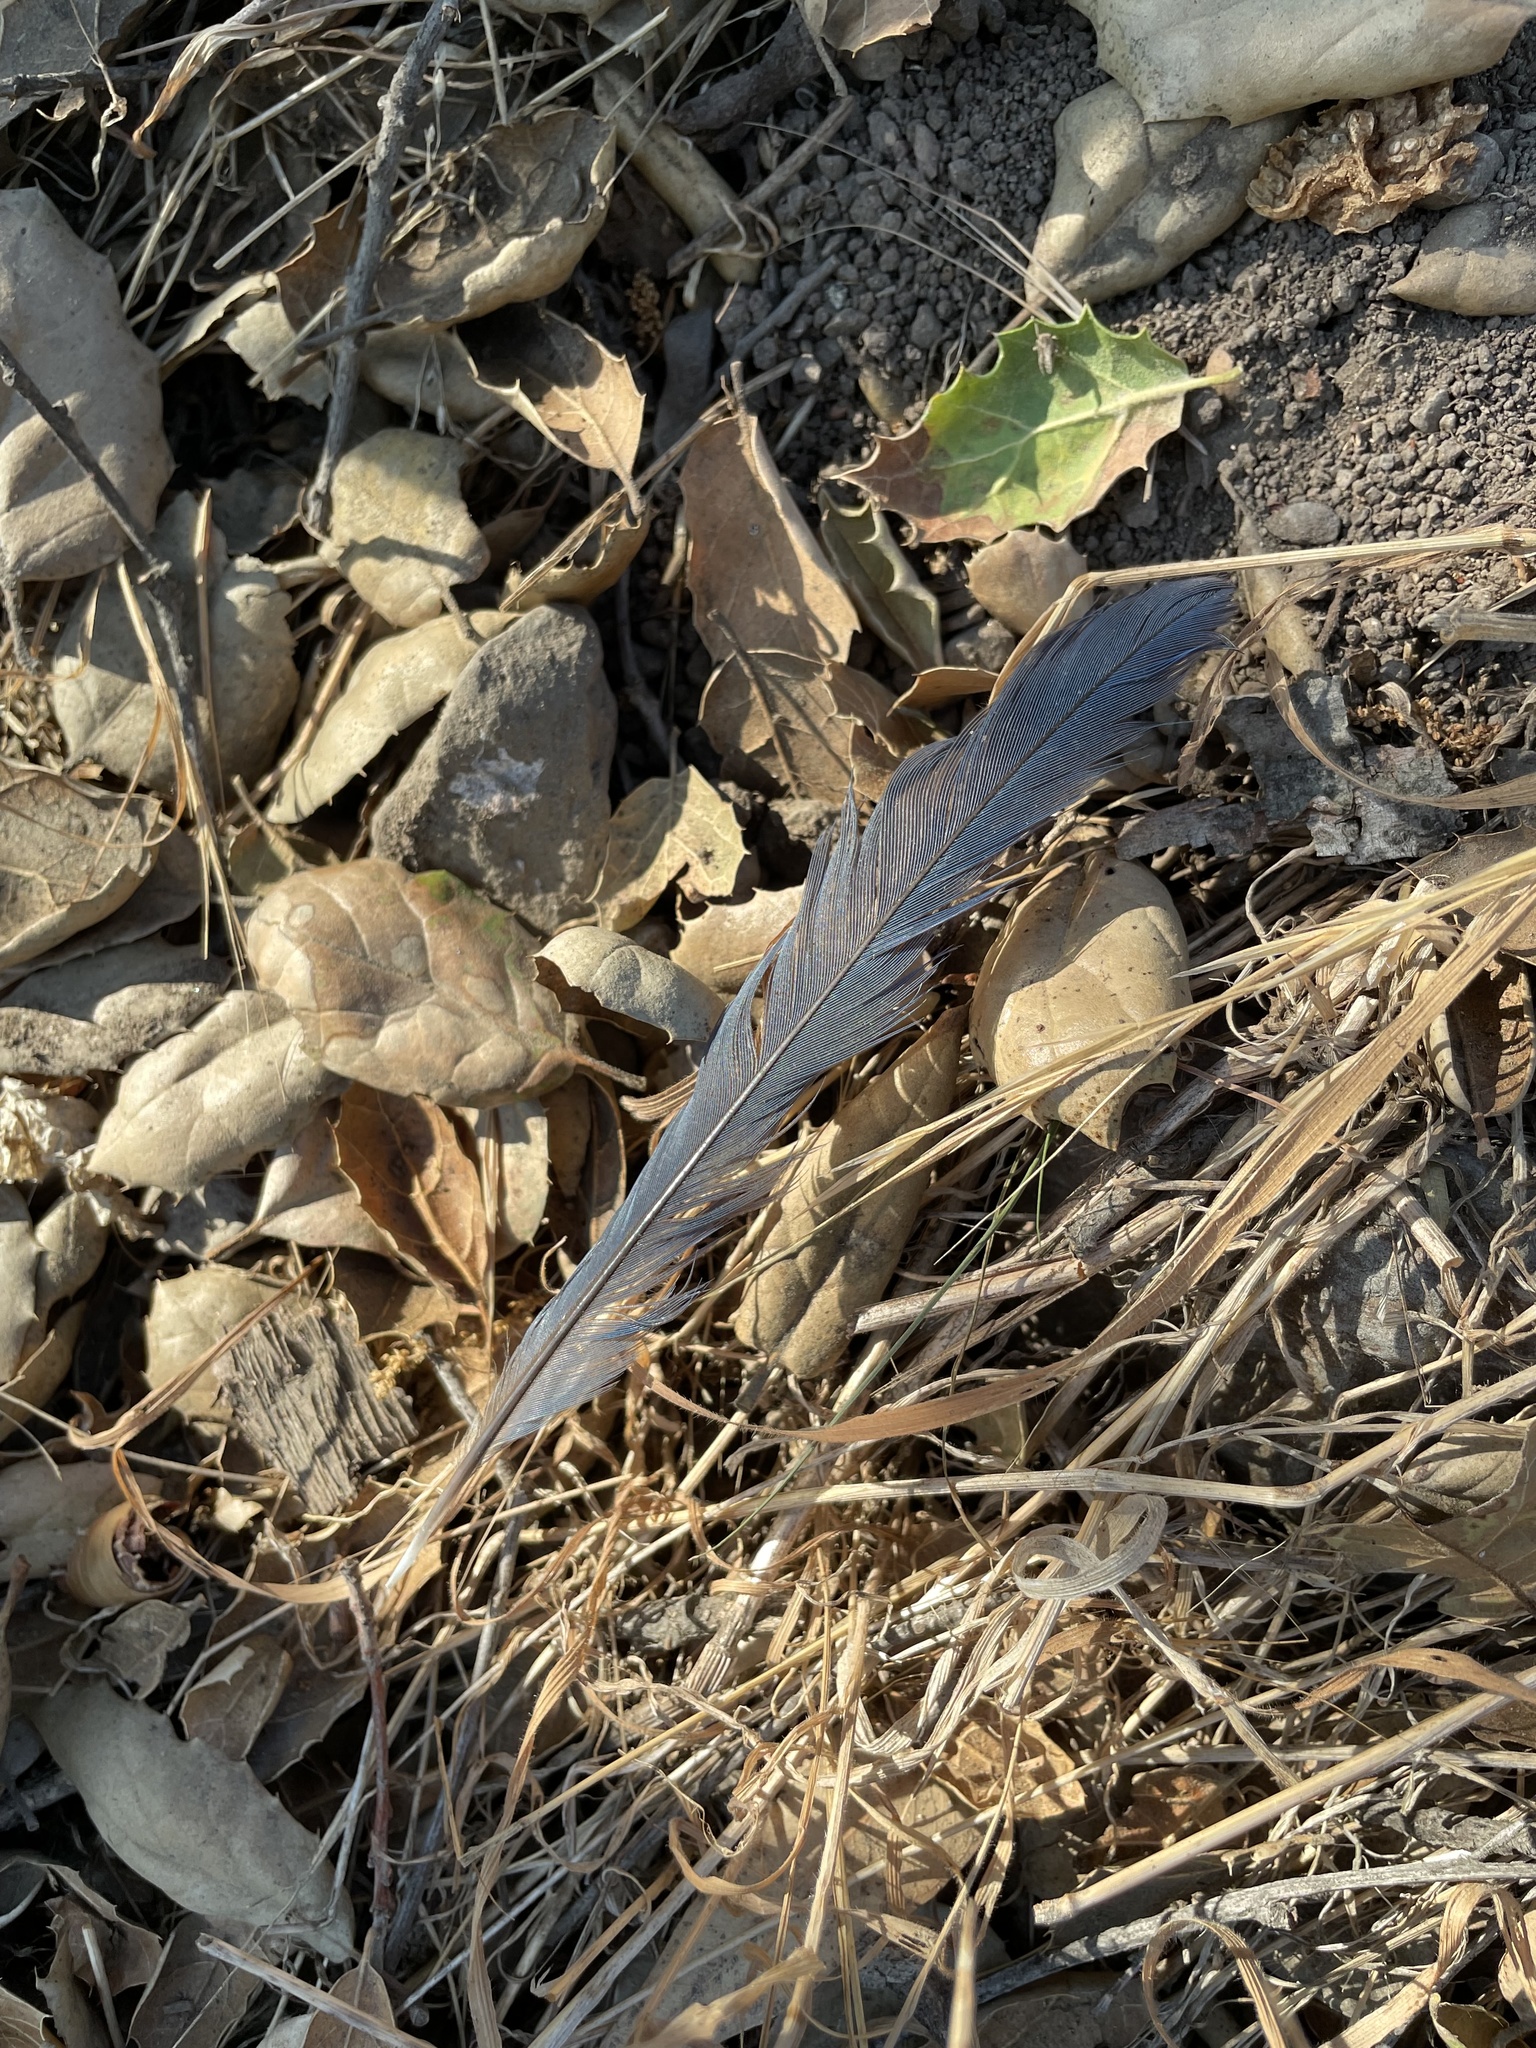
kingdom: Animalia
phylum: Chordata
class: Aves
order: Passeriformes
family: Corvidae
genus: Aphelocoma
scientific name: Aphelocoma californica
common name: California scrub-jay
